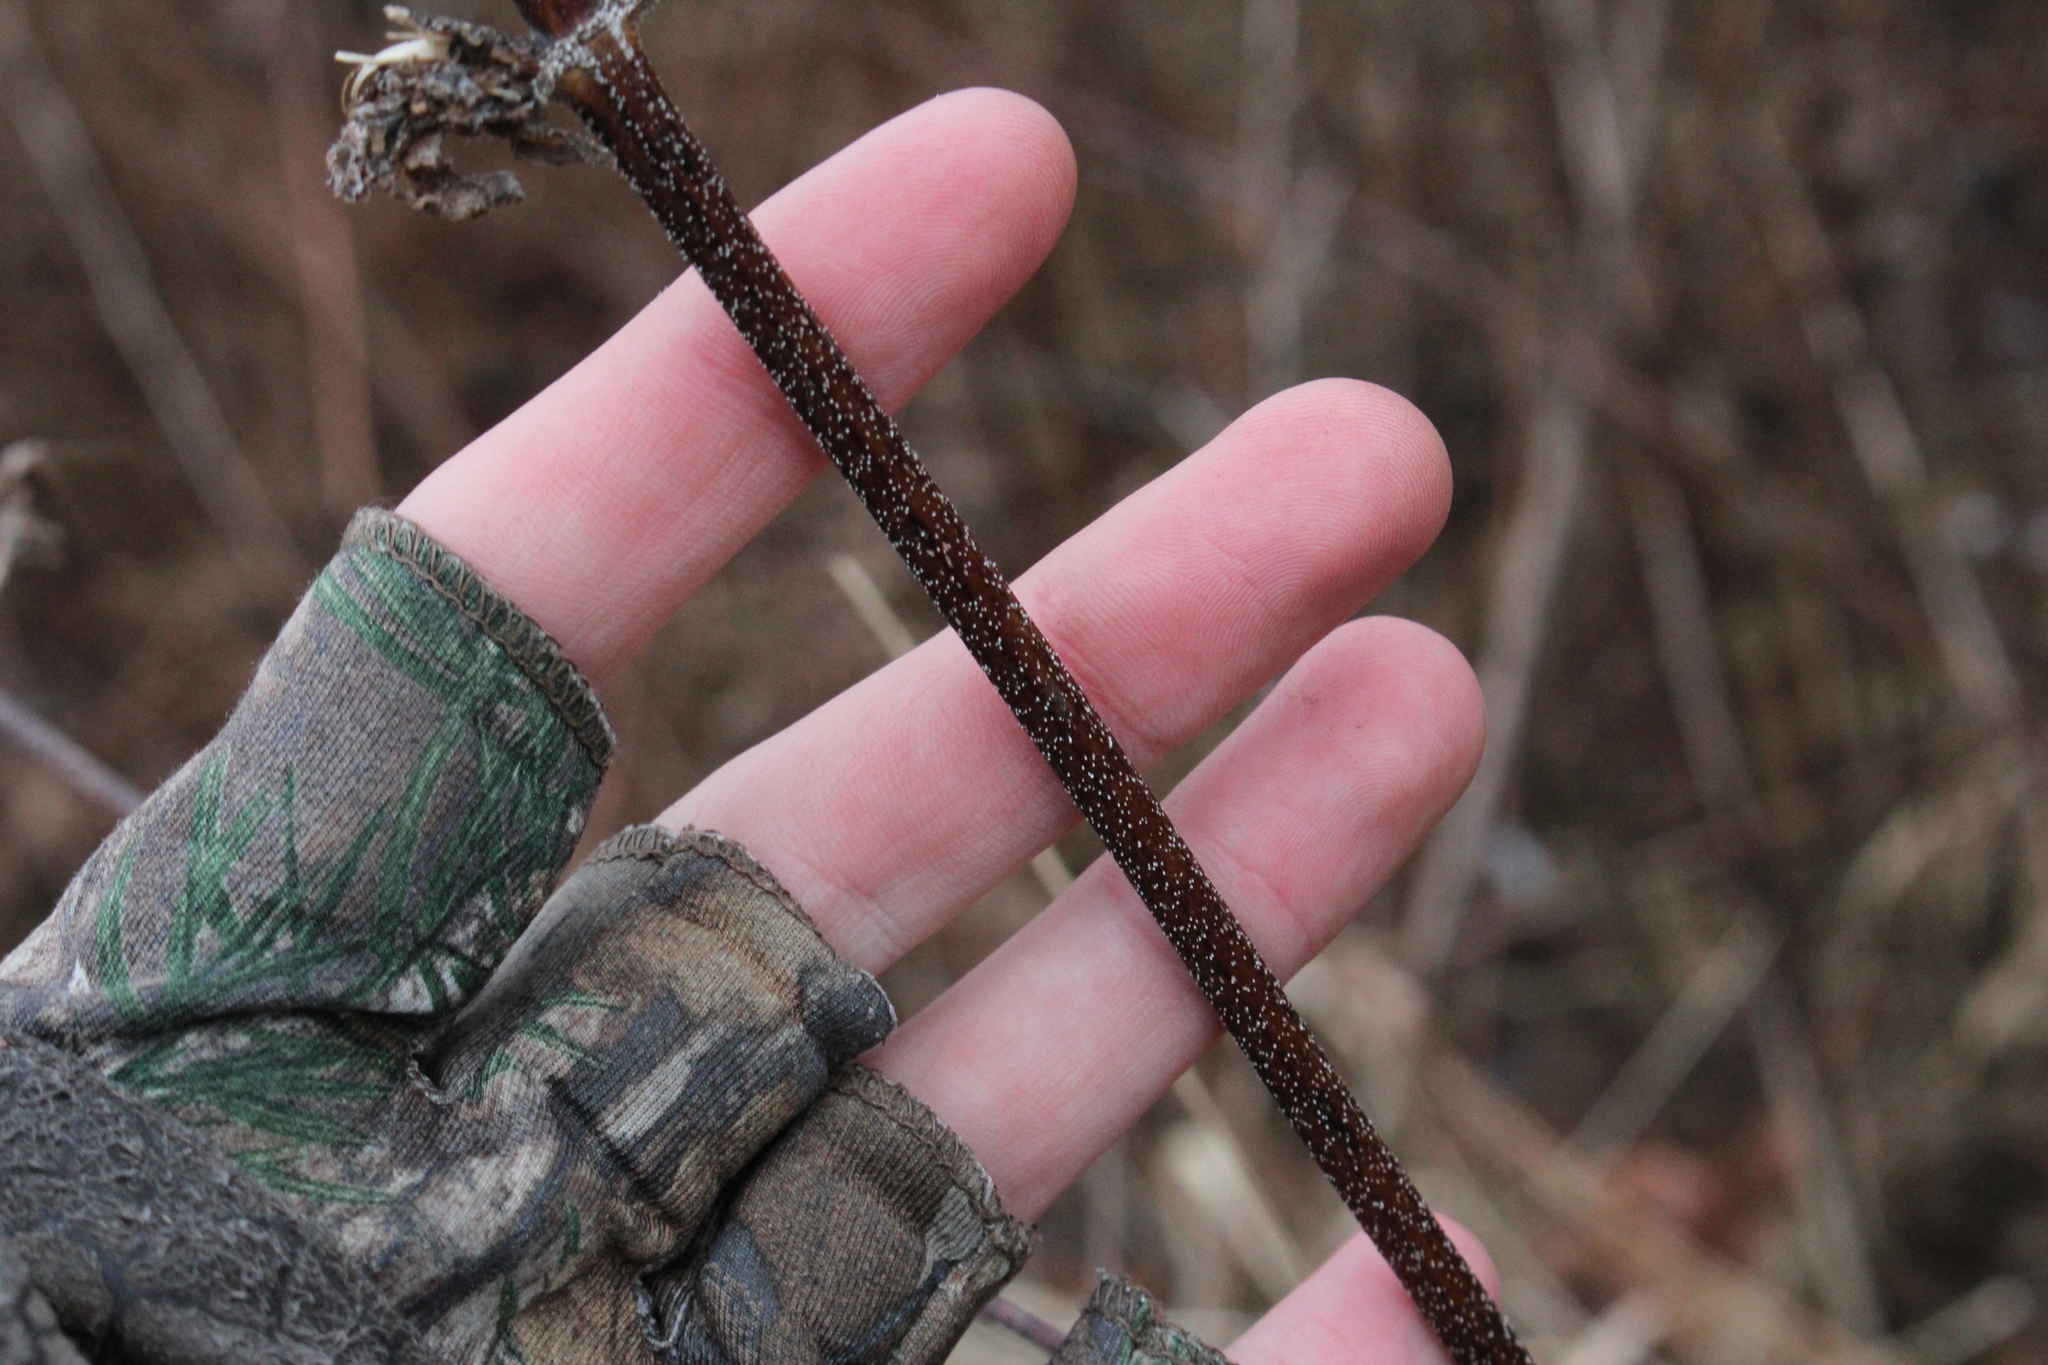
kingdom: Plantae
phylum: Tracheophyta
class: Magnoliopsida
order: Asterales
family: Asteraceae
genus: Ambrosia
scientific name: Ambrosia trifida
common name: Giant ragweed
